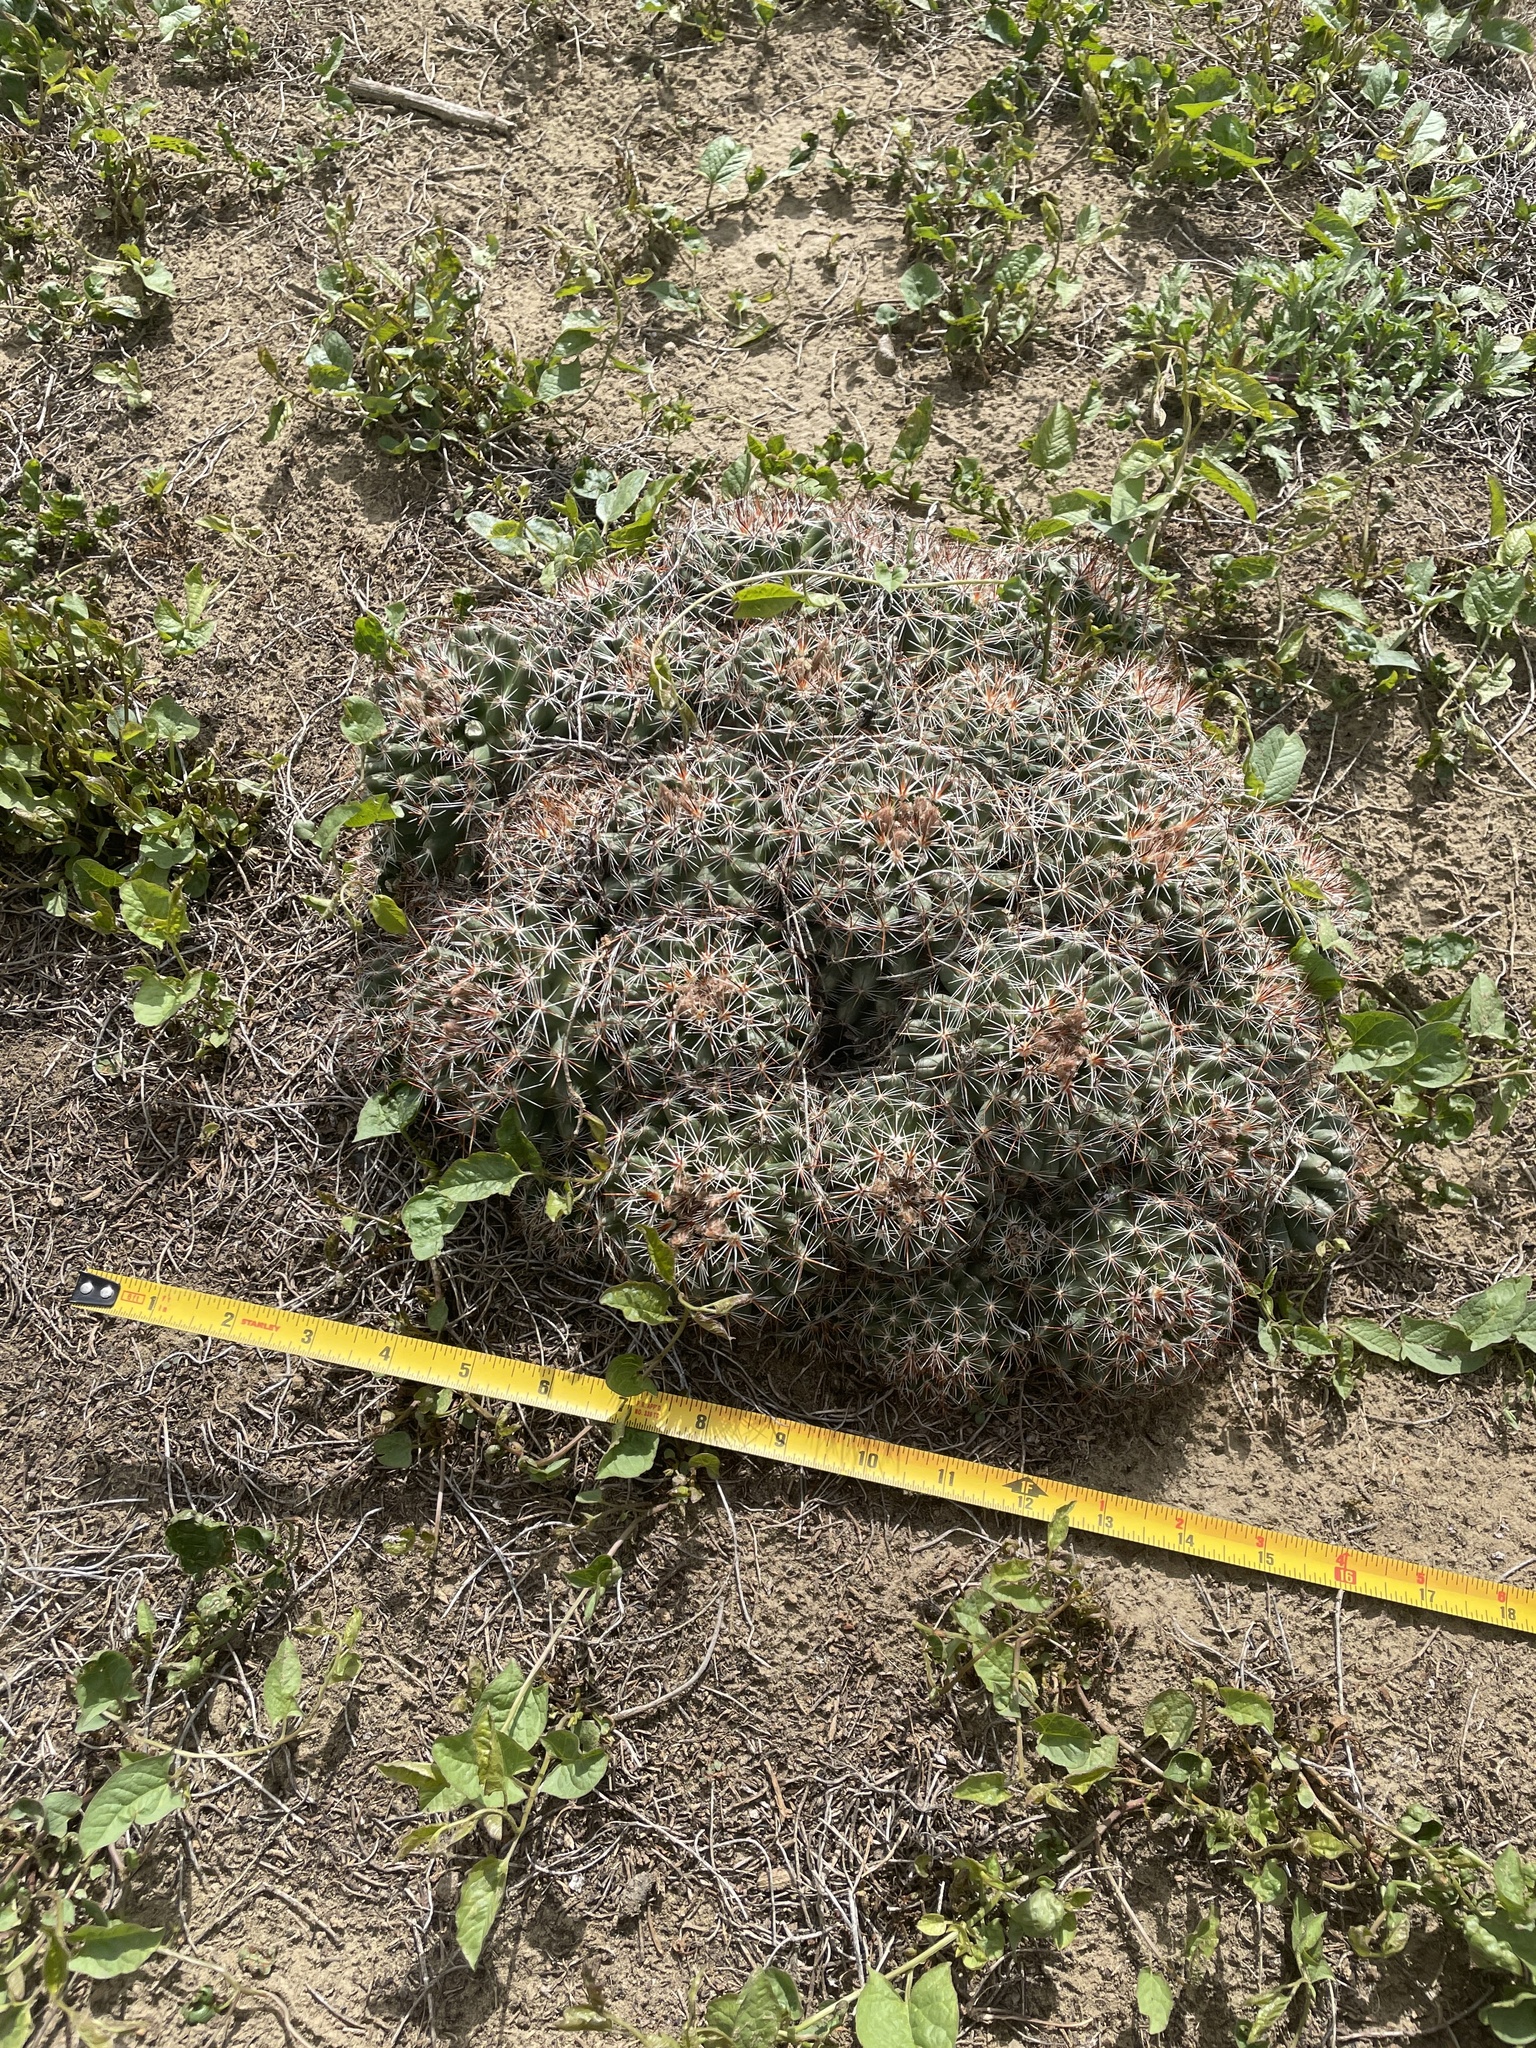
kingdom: Plantae
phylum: Tracheophyta
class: Magnoliopsida
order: Caryophyllales
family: Cactaceae
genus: Pelecyphora
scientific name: Pelecyphora vivipara
